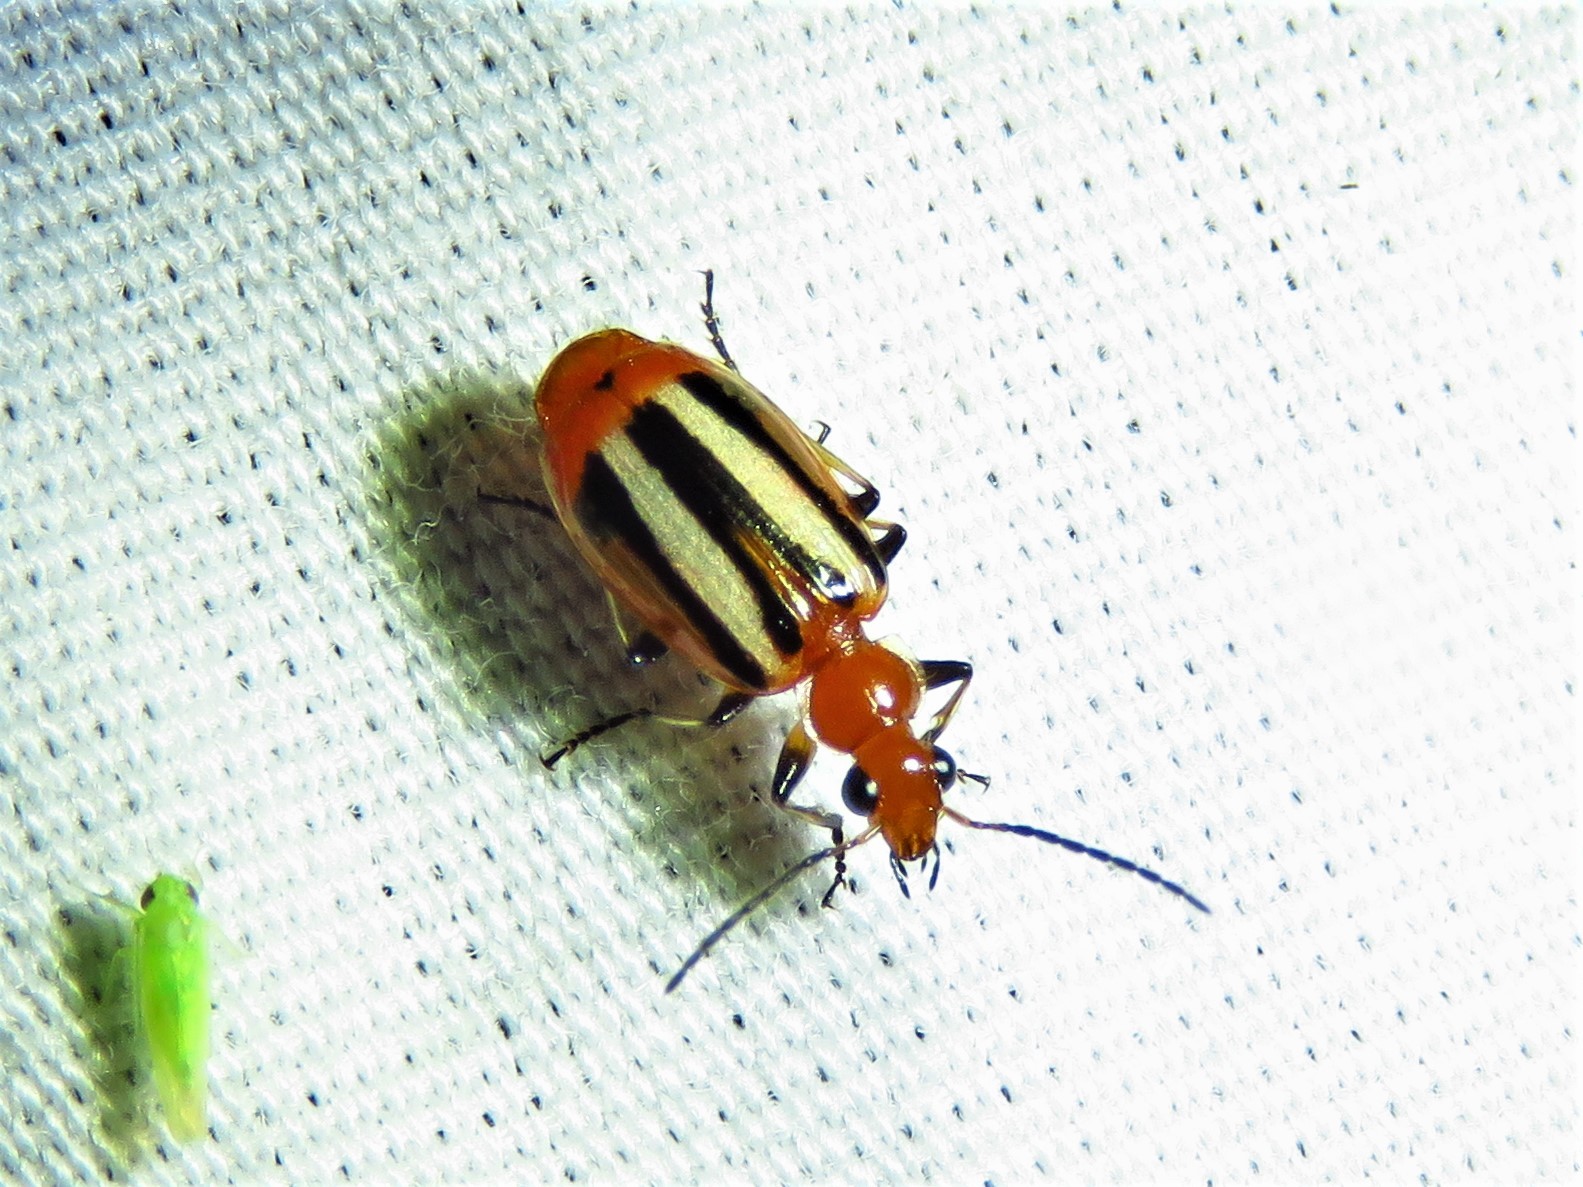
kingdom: Animalia
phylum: Arthropoda
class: Insecta
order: Coleoptera
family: Carabidae
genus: Lebia
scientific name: Lebia vittata
